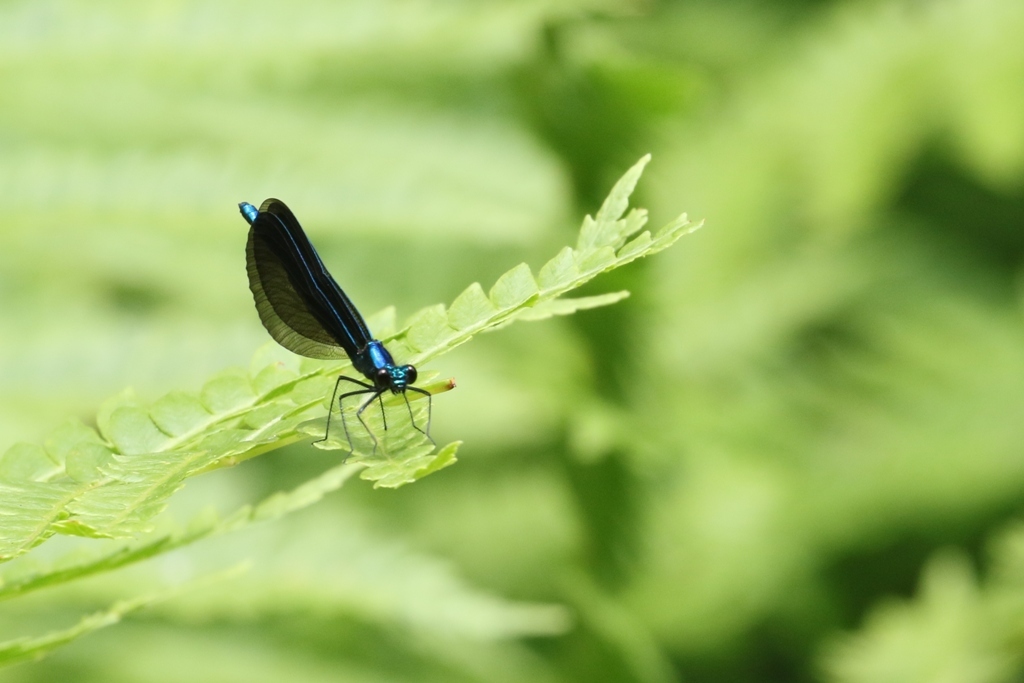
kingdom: Animalia
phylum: Arthropoda
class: Insecta
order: Odonata
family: Calopterygidae
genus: Calopteryx
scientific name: Calopteryx maculata
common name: Ebony jewelwing
